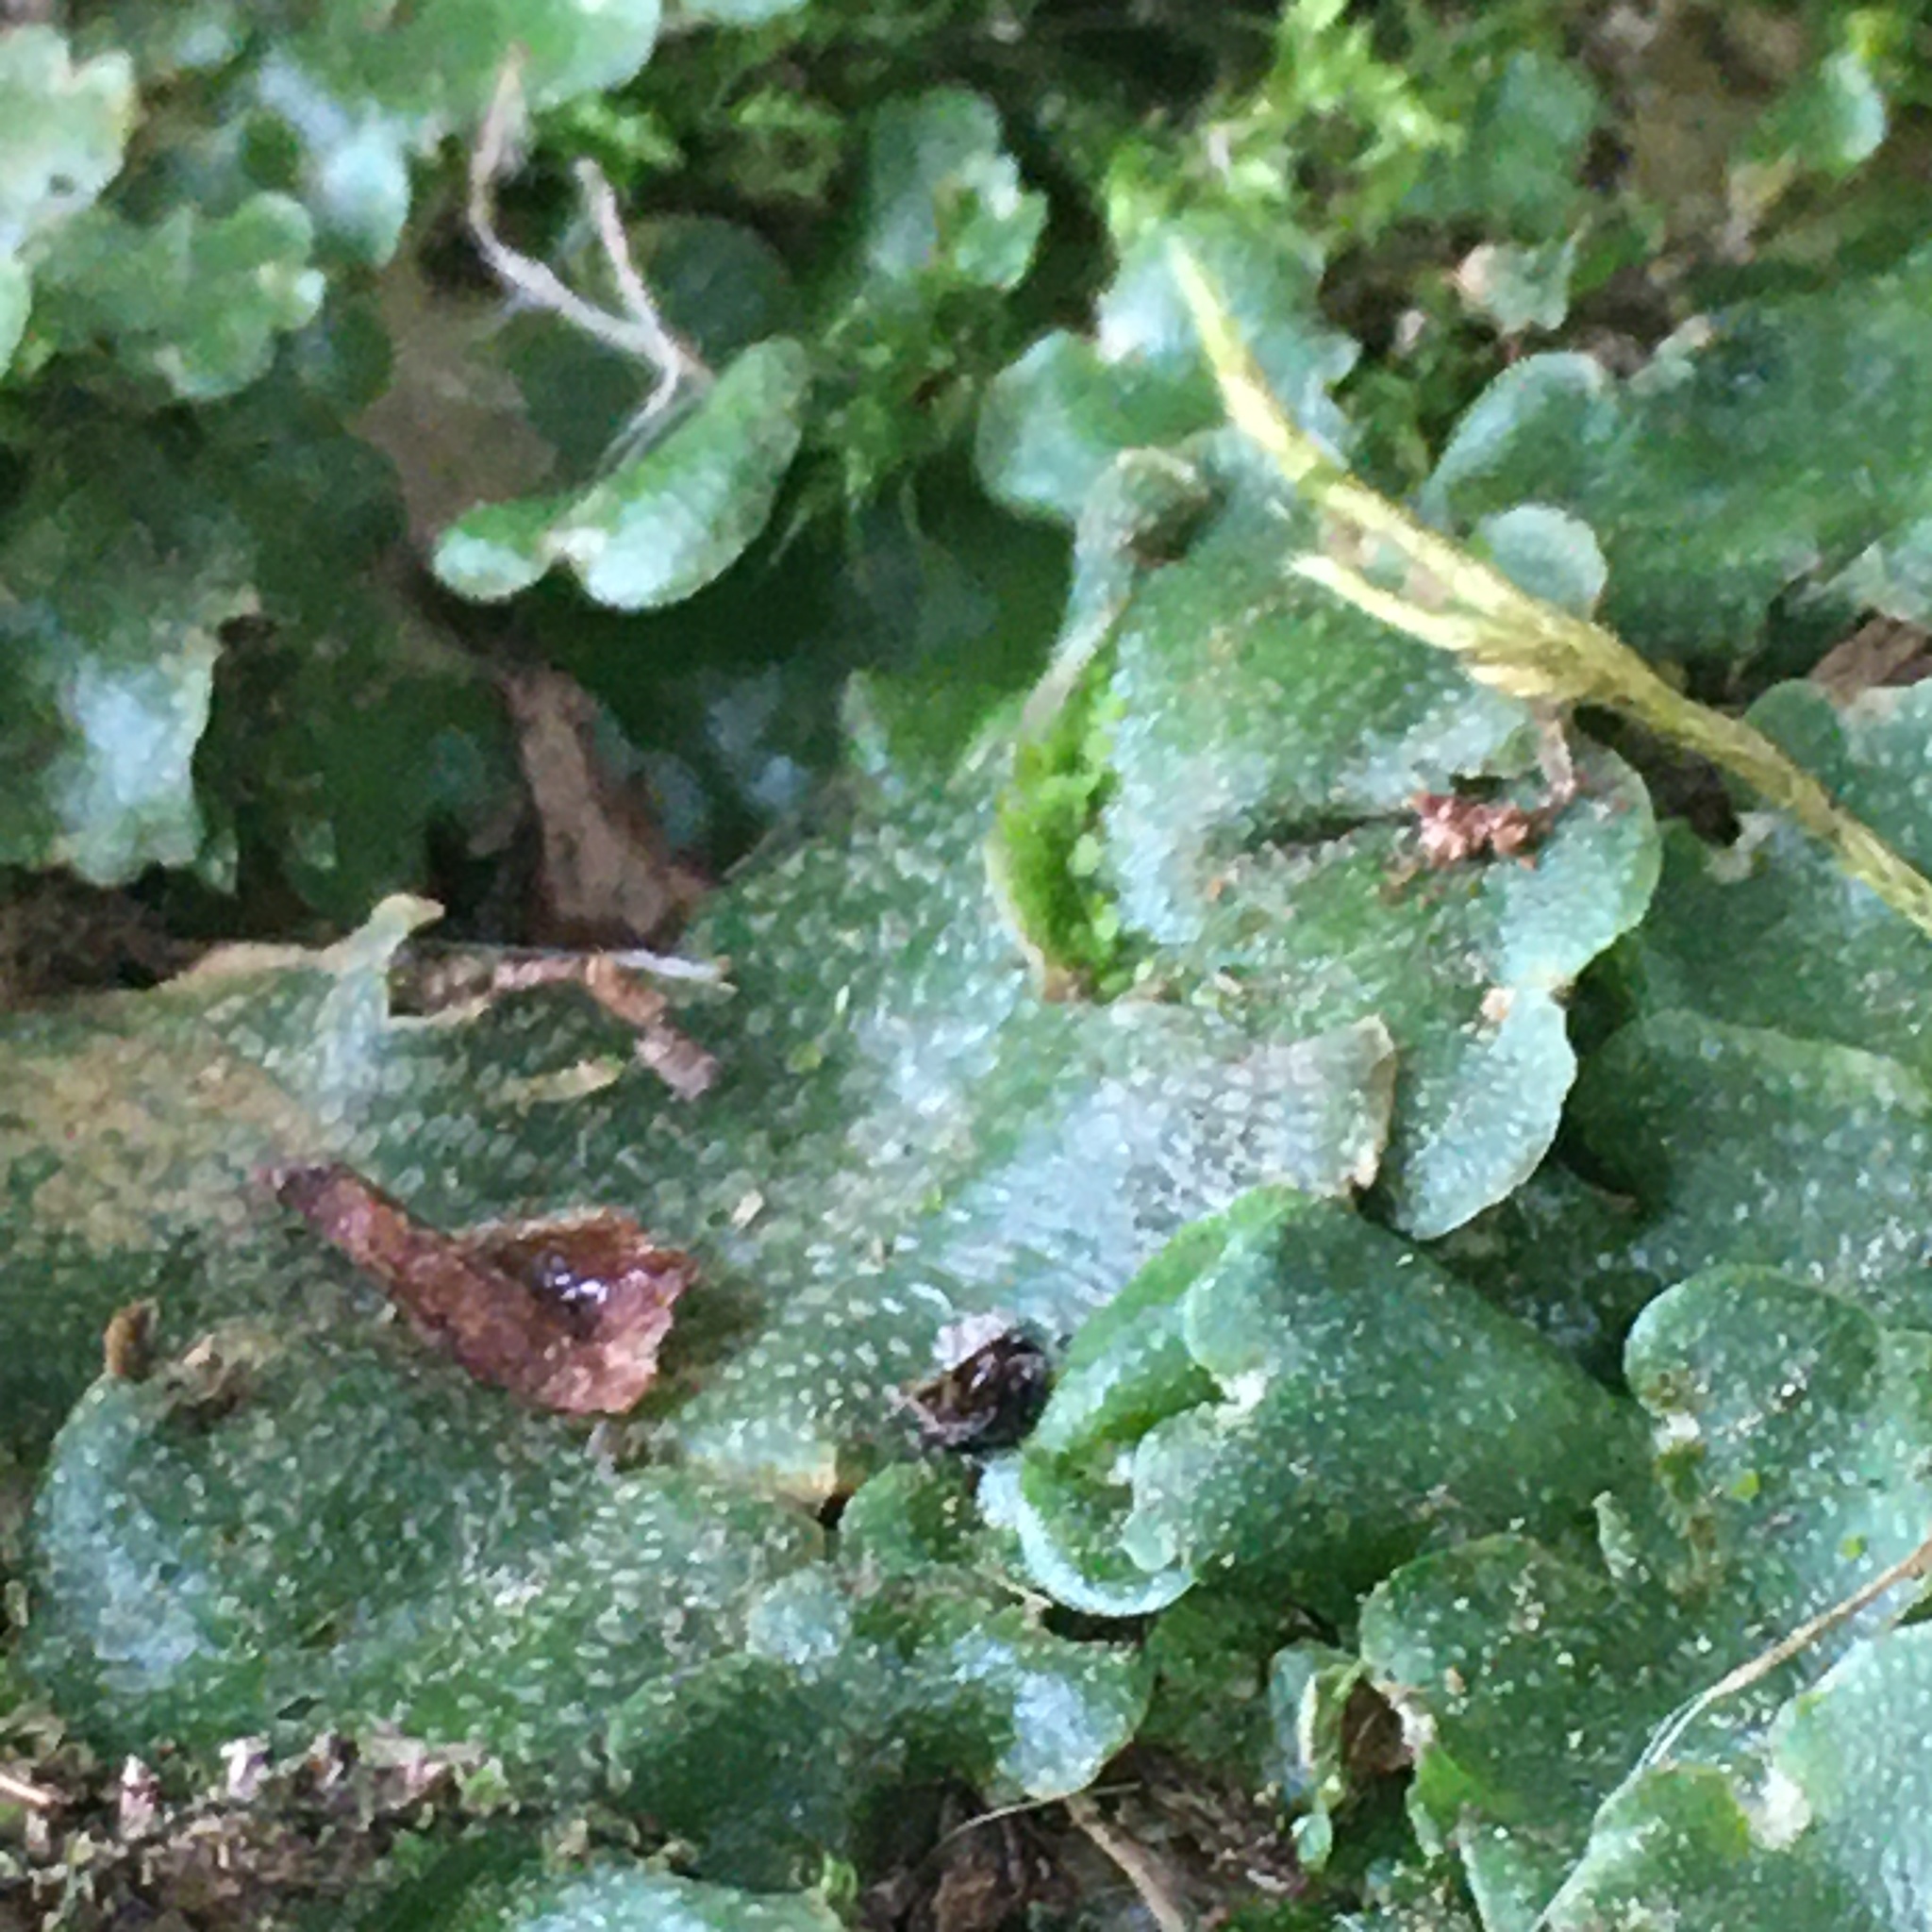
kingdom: Plantae
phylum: Marchantiophyta
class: Marchantiopsida
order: Lunulariales
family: Lunulariaceae
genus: Lunularia
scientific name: Lunularia cruciata
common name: Crescent-cup liverwort
